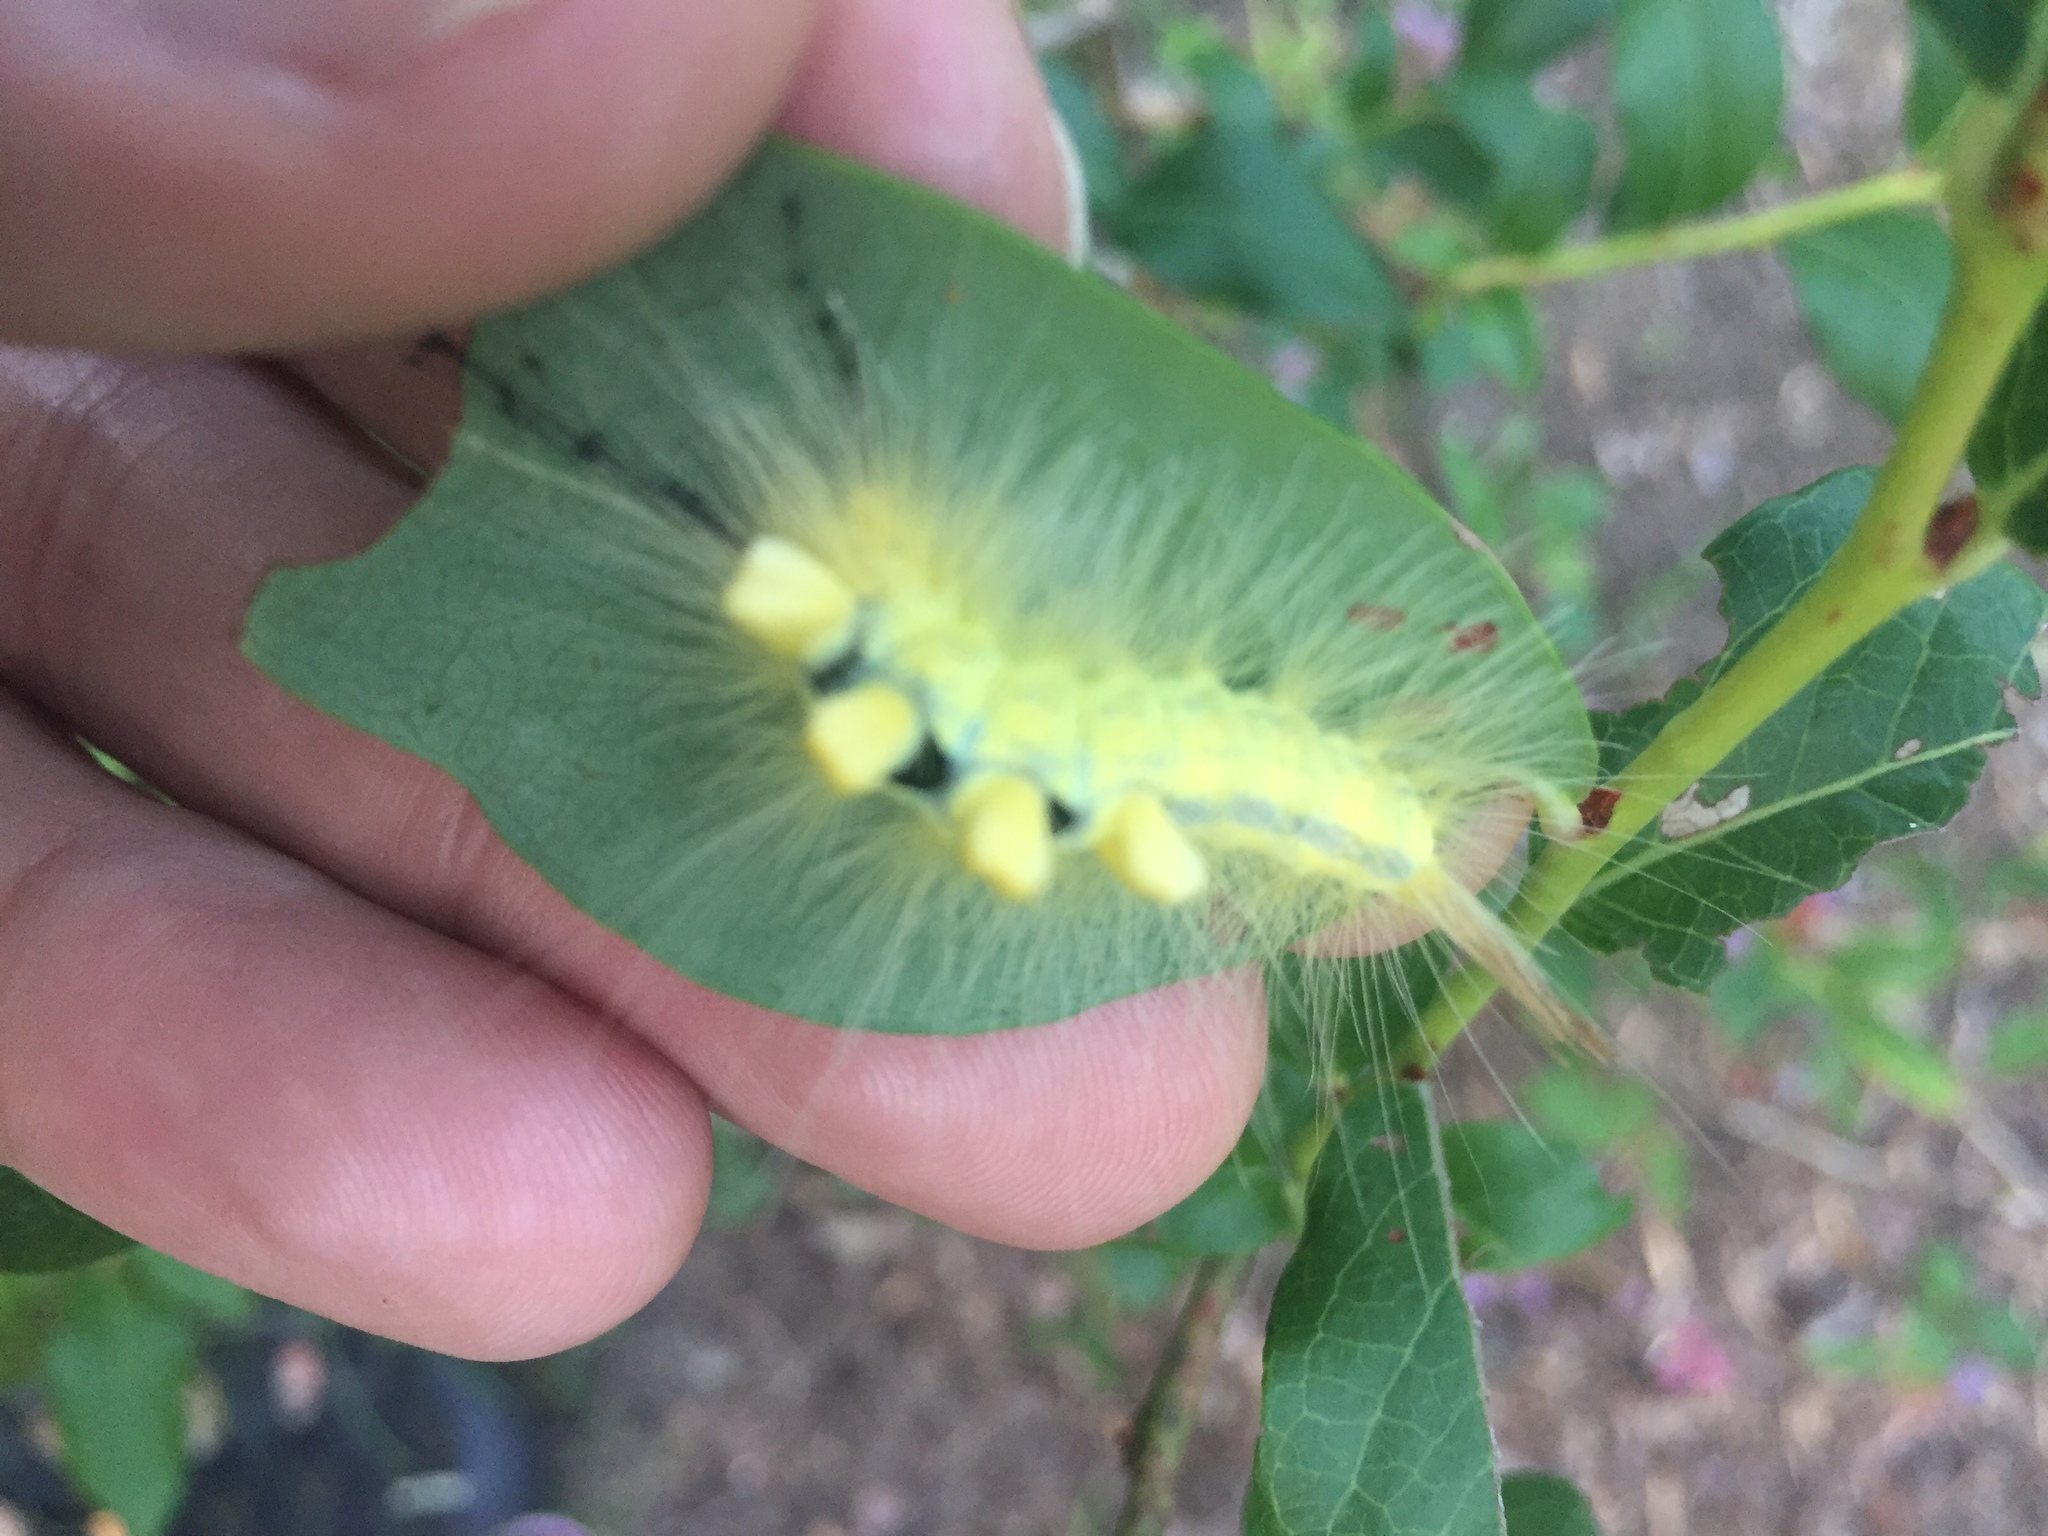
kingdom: Animalia
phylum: Arthropoda
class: Insecta
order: Lepidoptera
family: Erebidae
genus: Orgyia
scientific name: Orgyia definita
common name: Definite tussock moth
